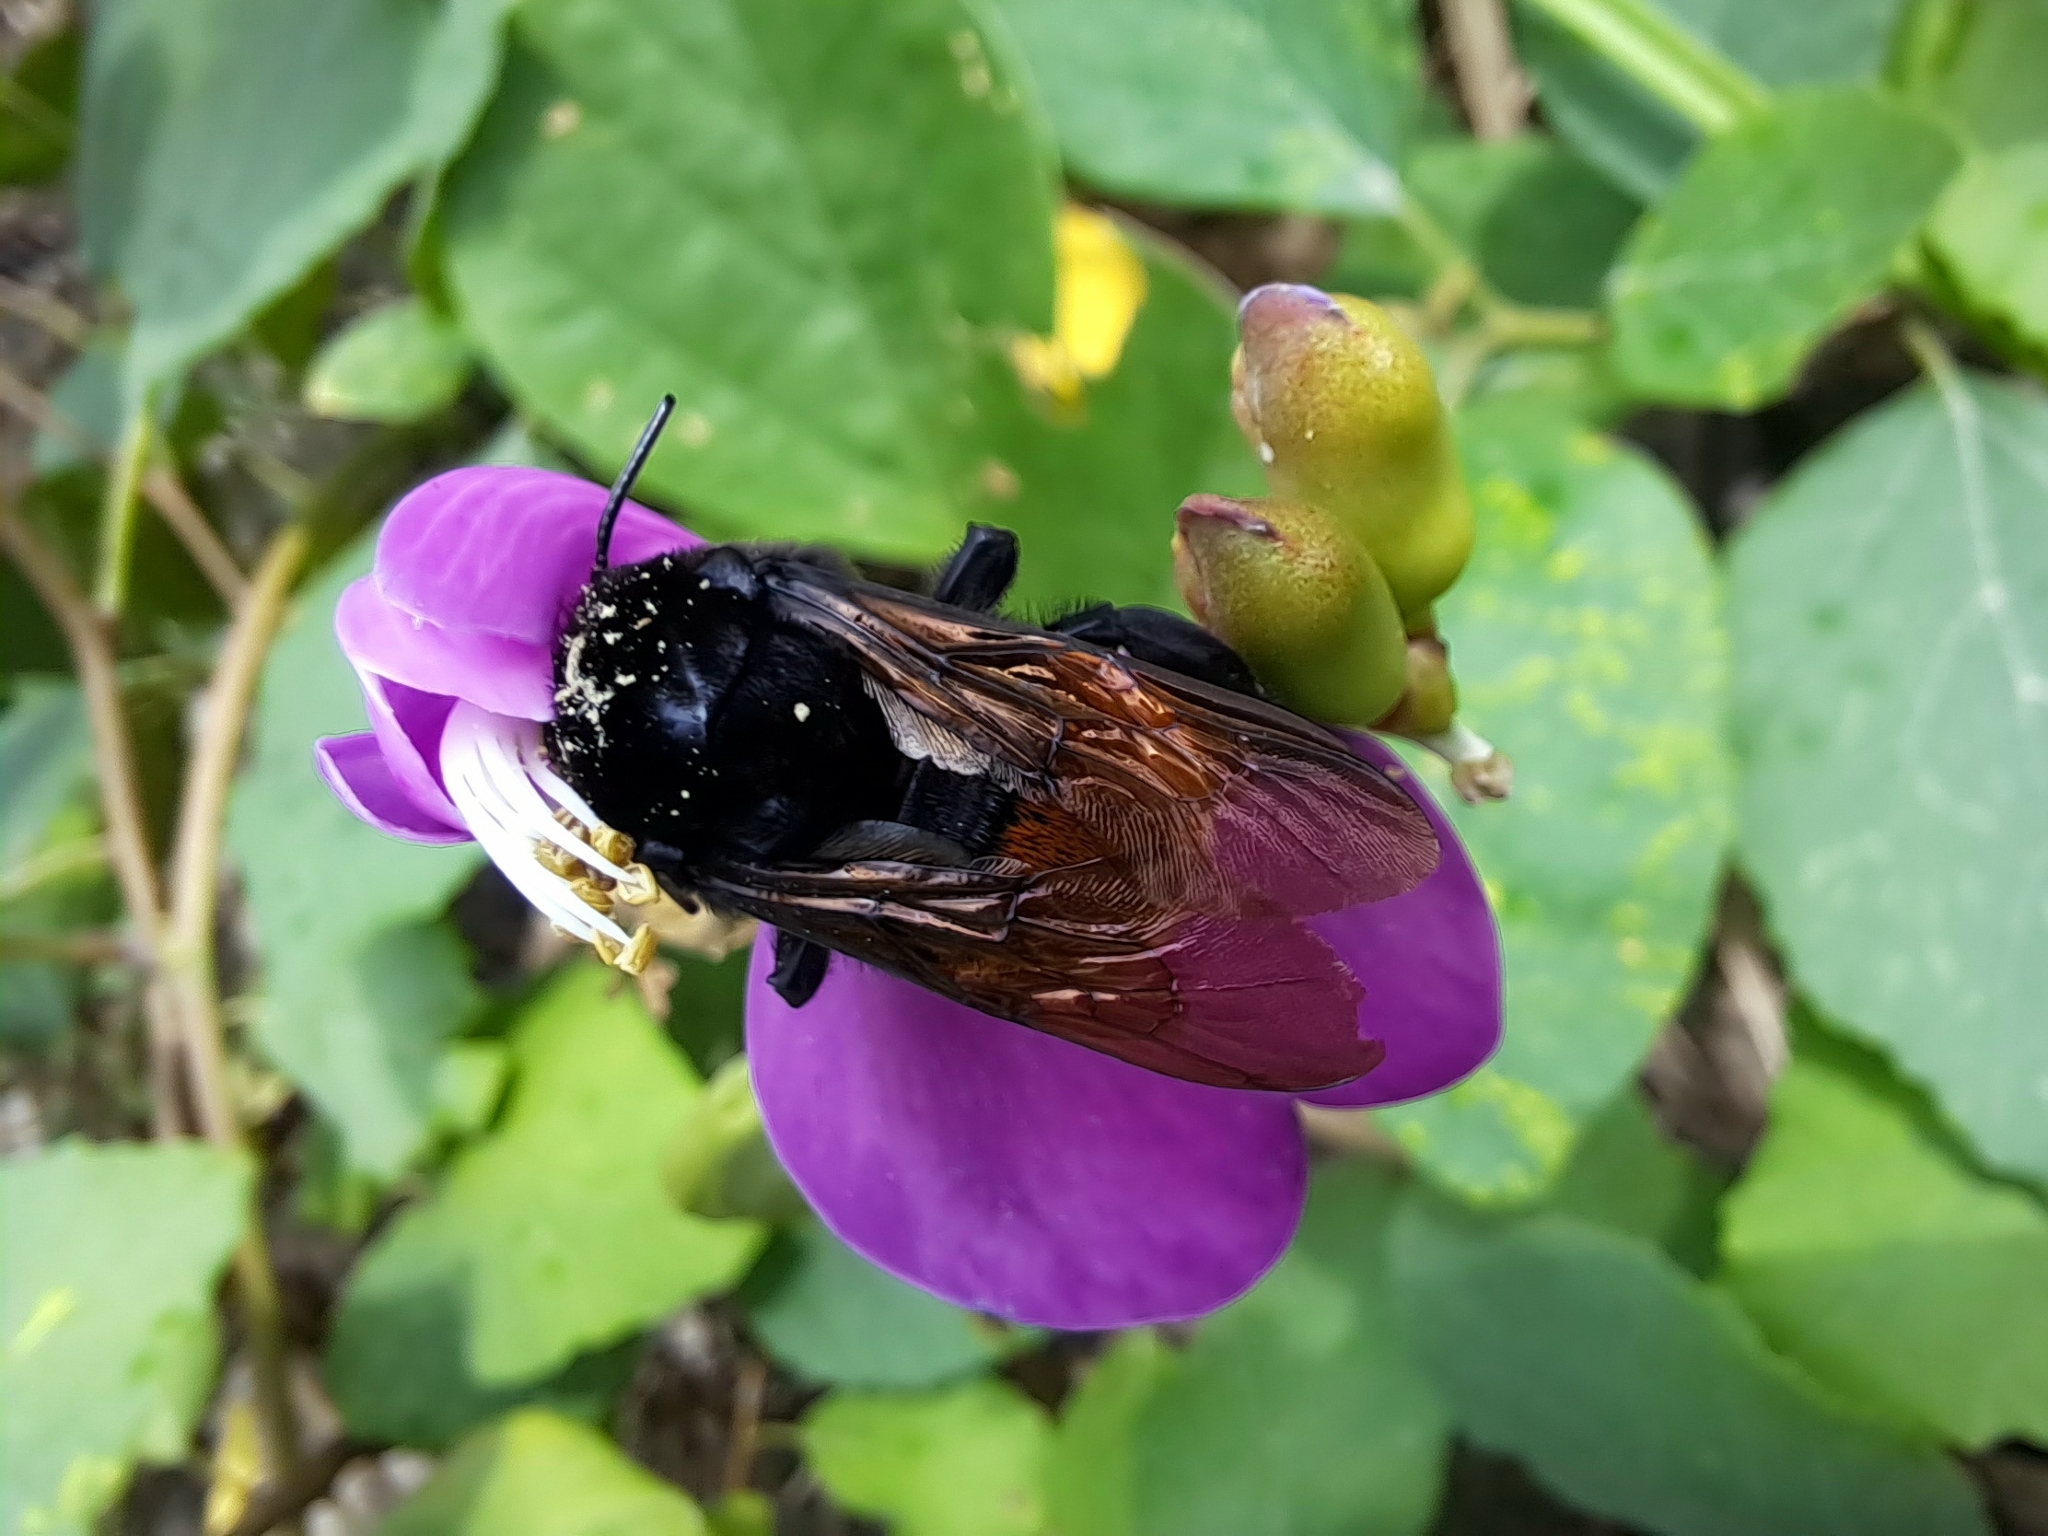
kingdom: Animalia
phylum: Arthropoda
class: Insecta
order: Hymenoptera
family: Apidae
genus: Eulaema
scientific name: Eulaema polychroma
